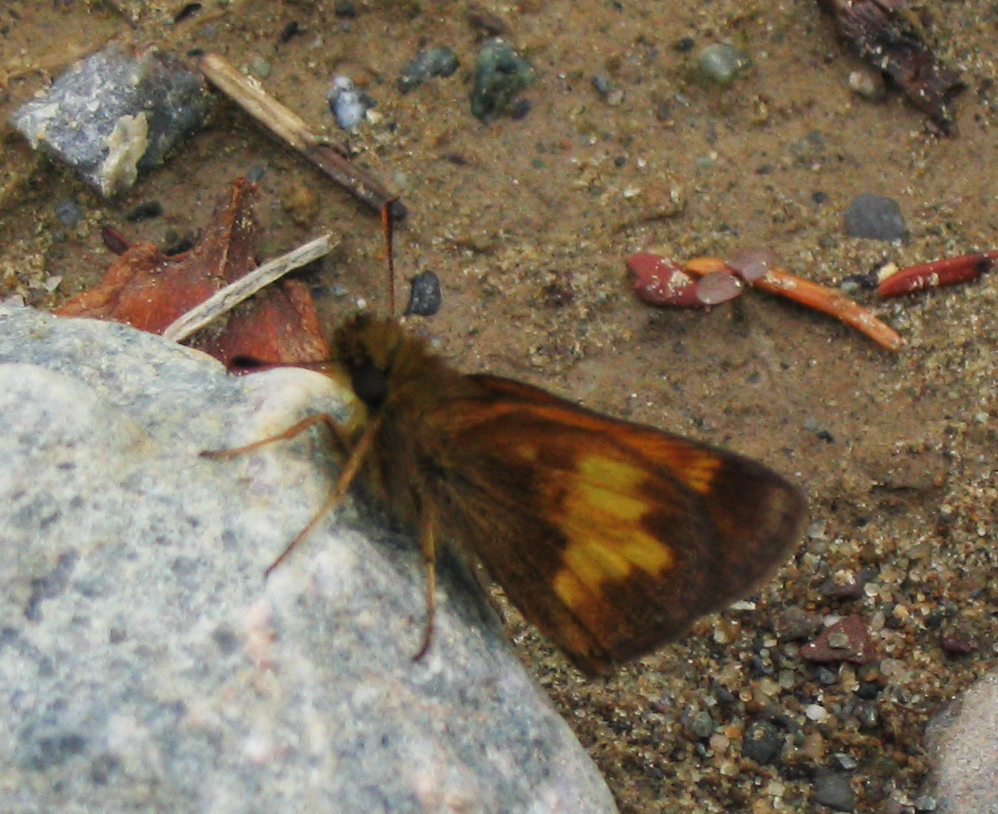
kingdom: Animalia
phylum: Arthropoda
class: Insecta
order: Lepidoptera
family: Hesperiidae
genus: Lon
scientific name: Lon hobomok
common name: Hobomok skipper
